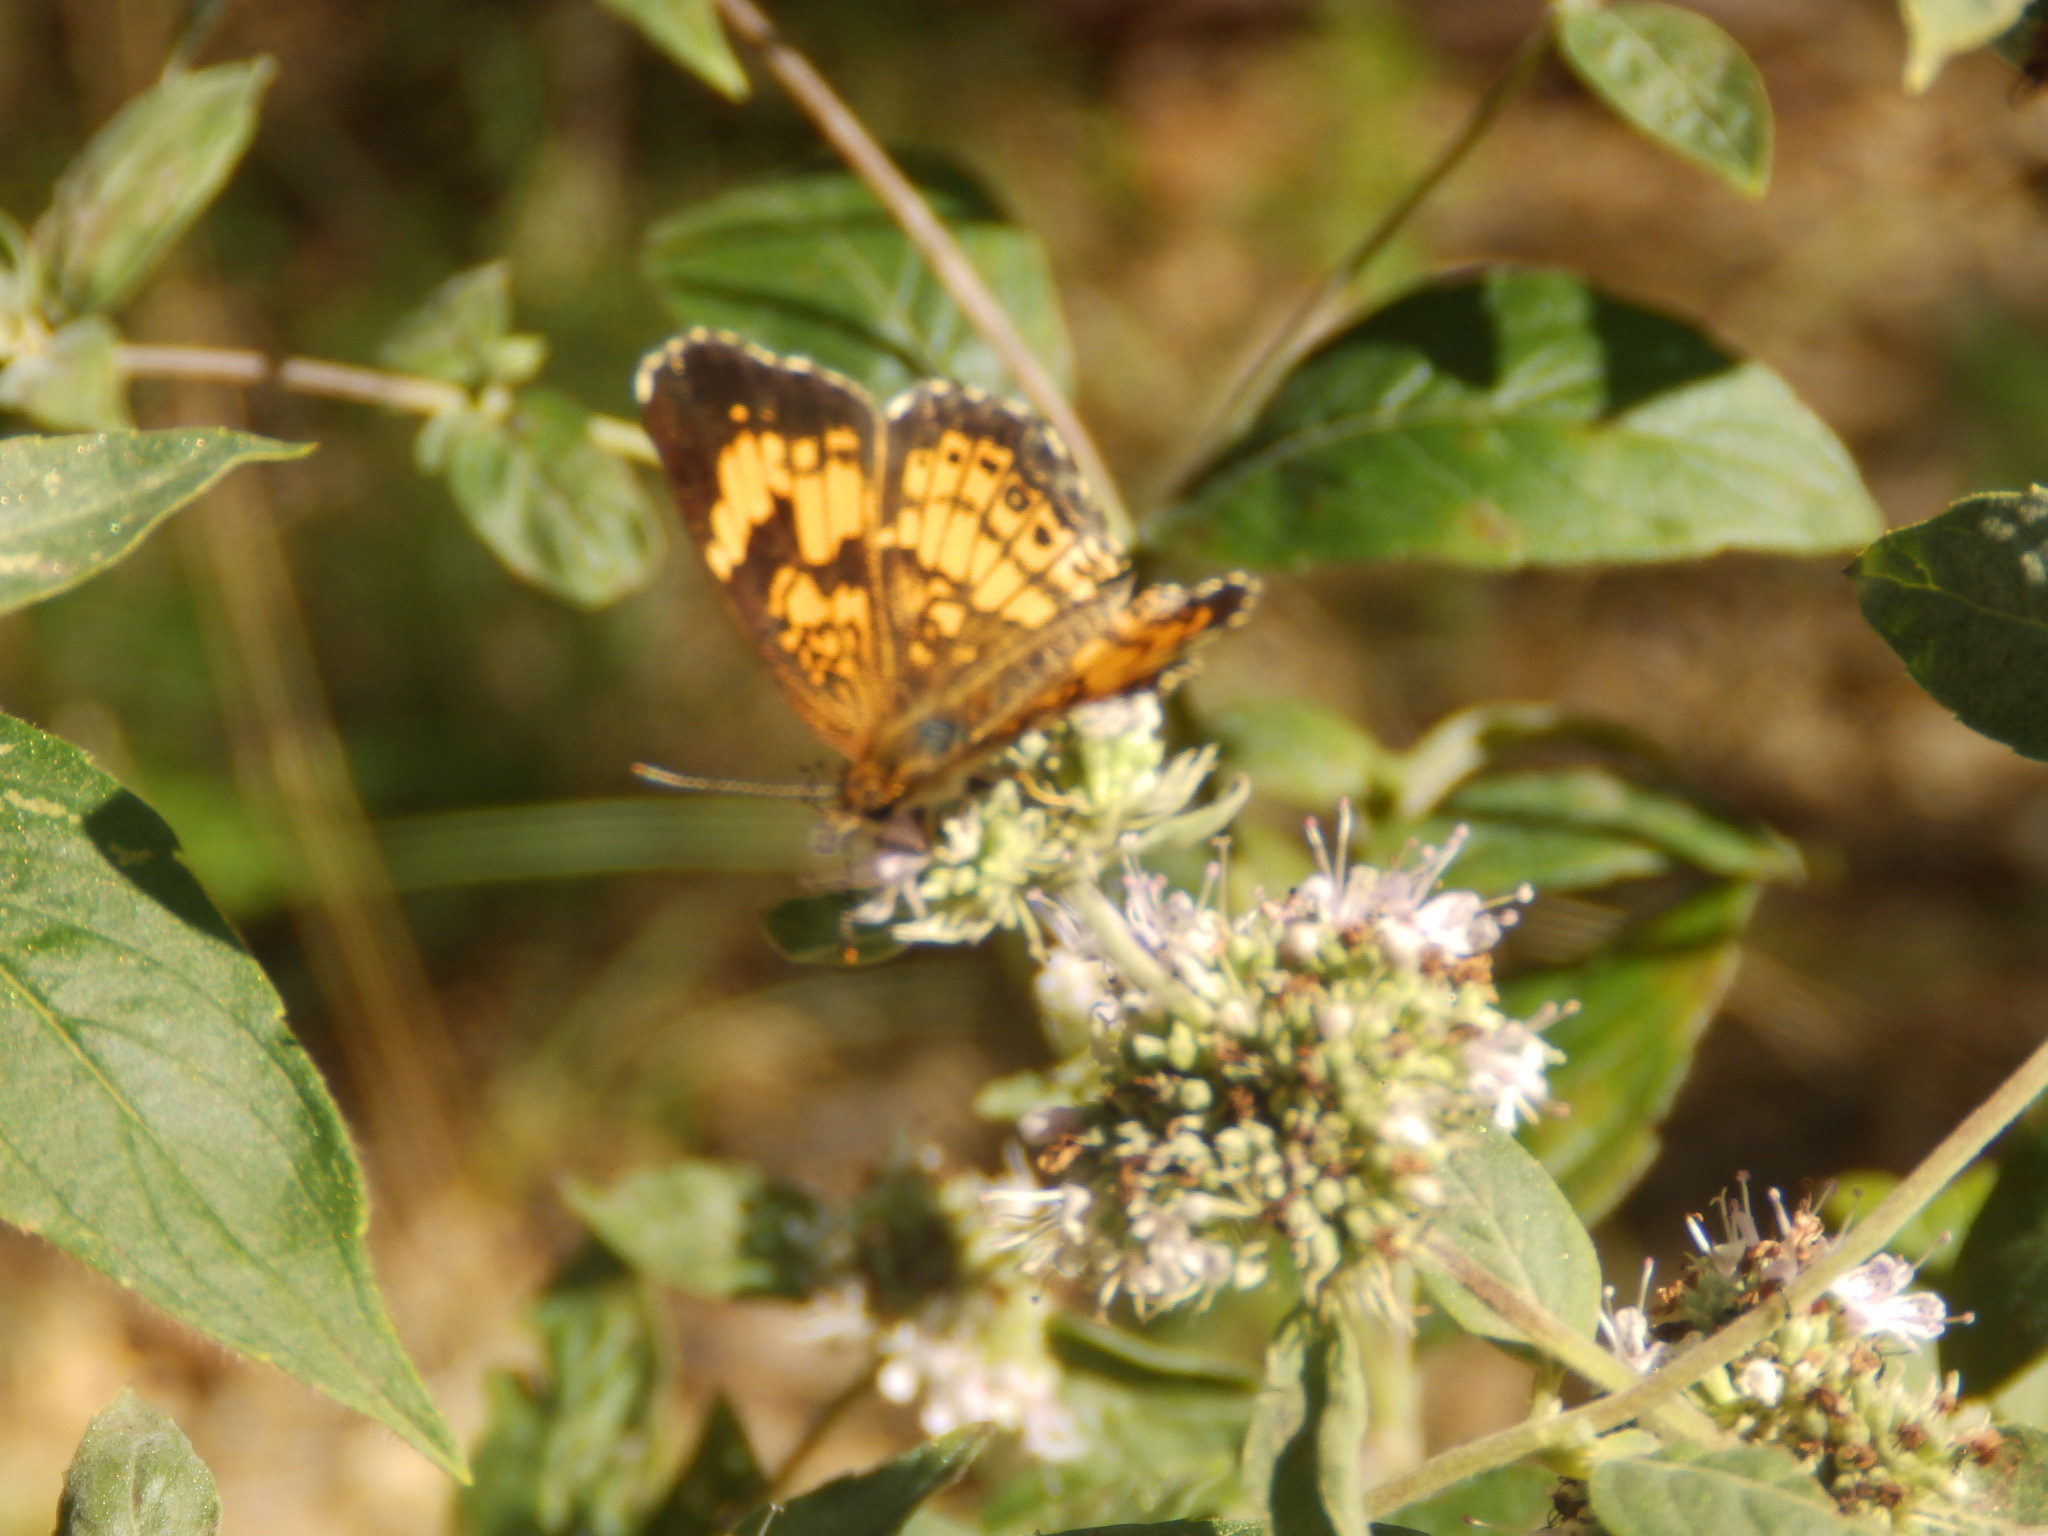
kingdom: Animalia
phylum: Arthropoda
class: Insecta
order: Lepidoptera
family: Nymphalidae
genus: Chlosyne
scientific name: Chlosyne nycteis
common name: Silvery checkerspot
